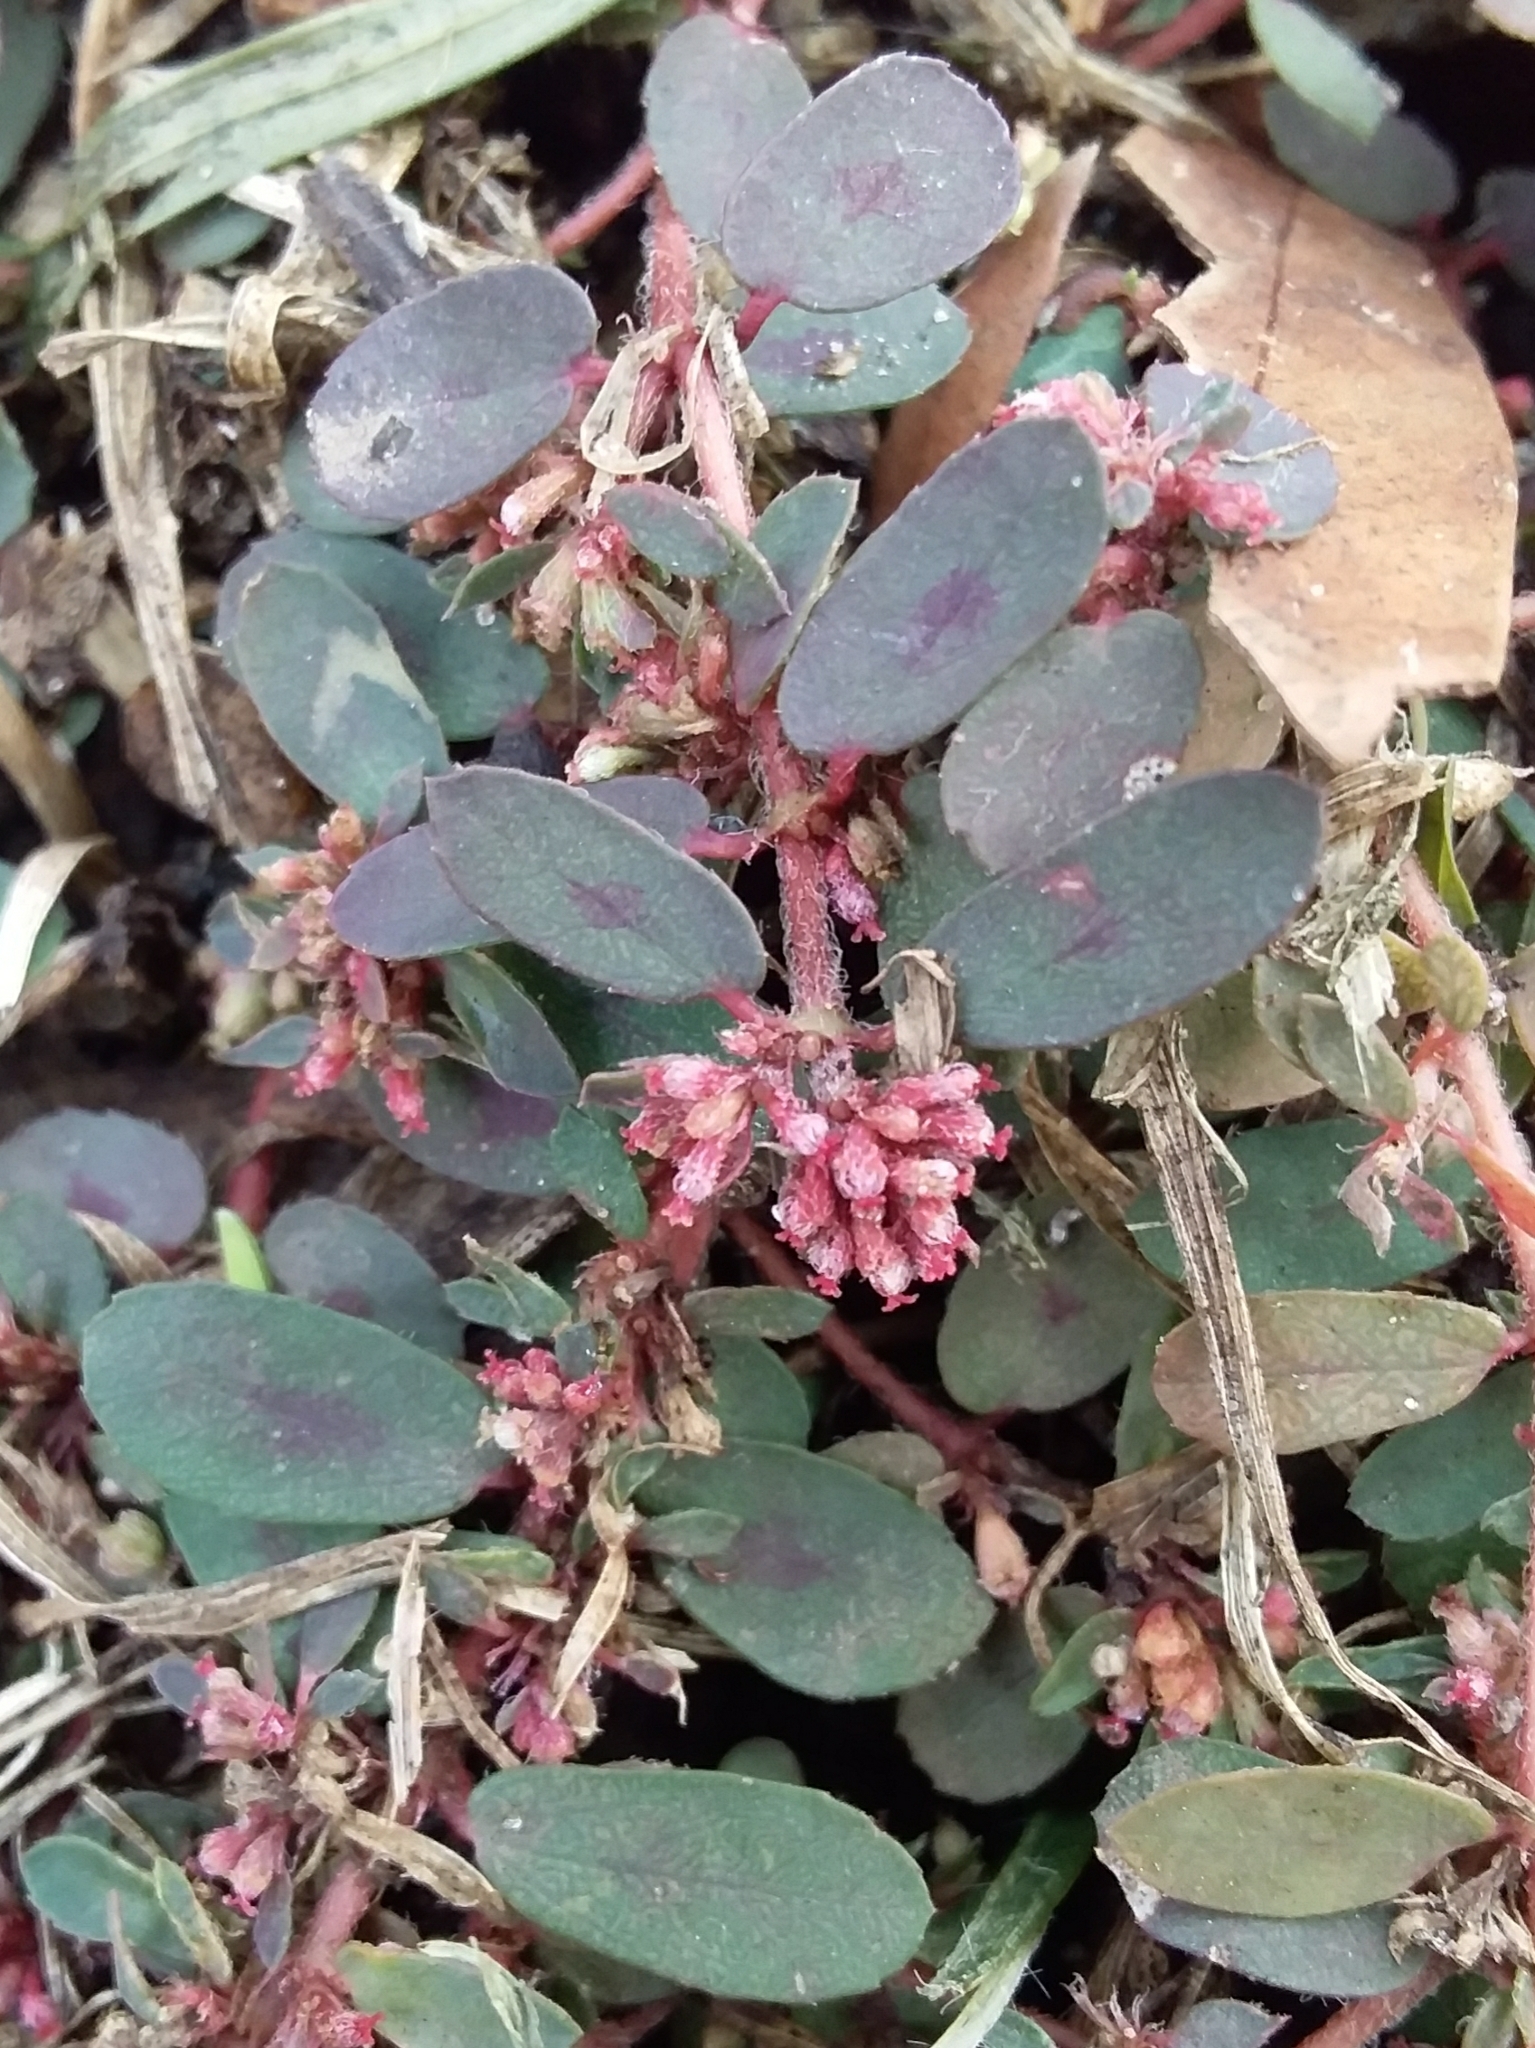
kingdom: Plantae
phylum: Tracheophyta
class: Magnoliopsida
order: Malpighiales
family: Euphorbiaceae
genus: Euphorbia
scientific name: Euphorbia maculata
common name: Spotted spurge
